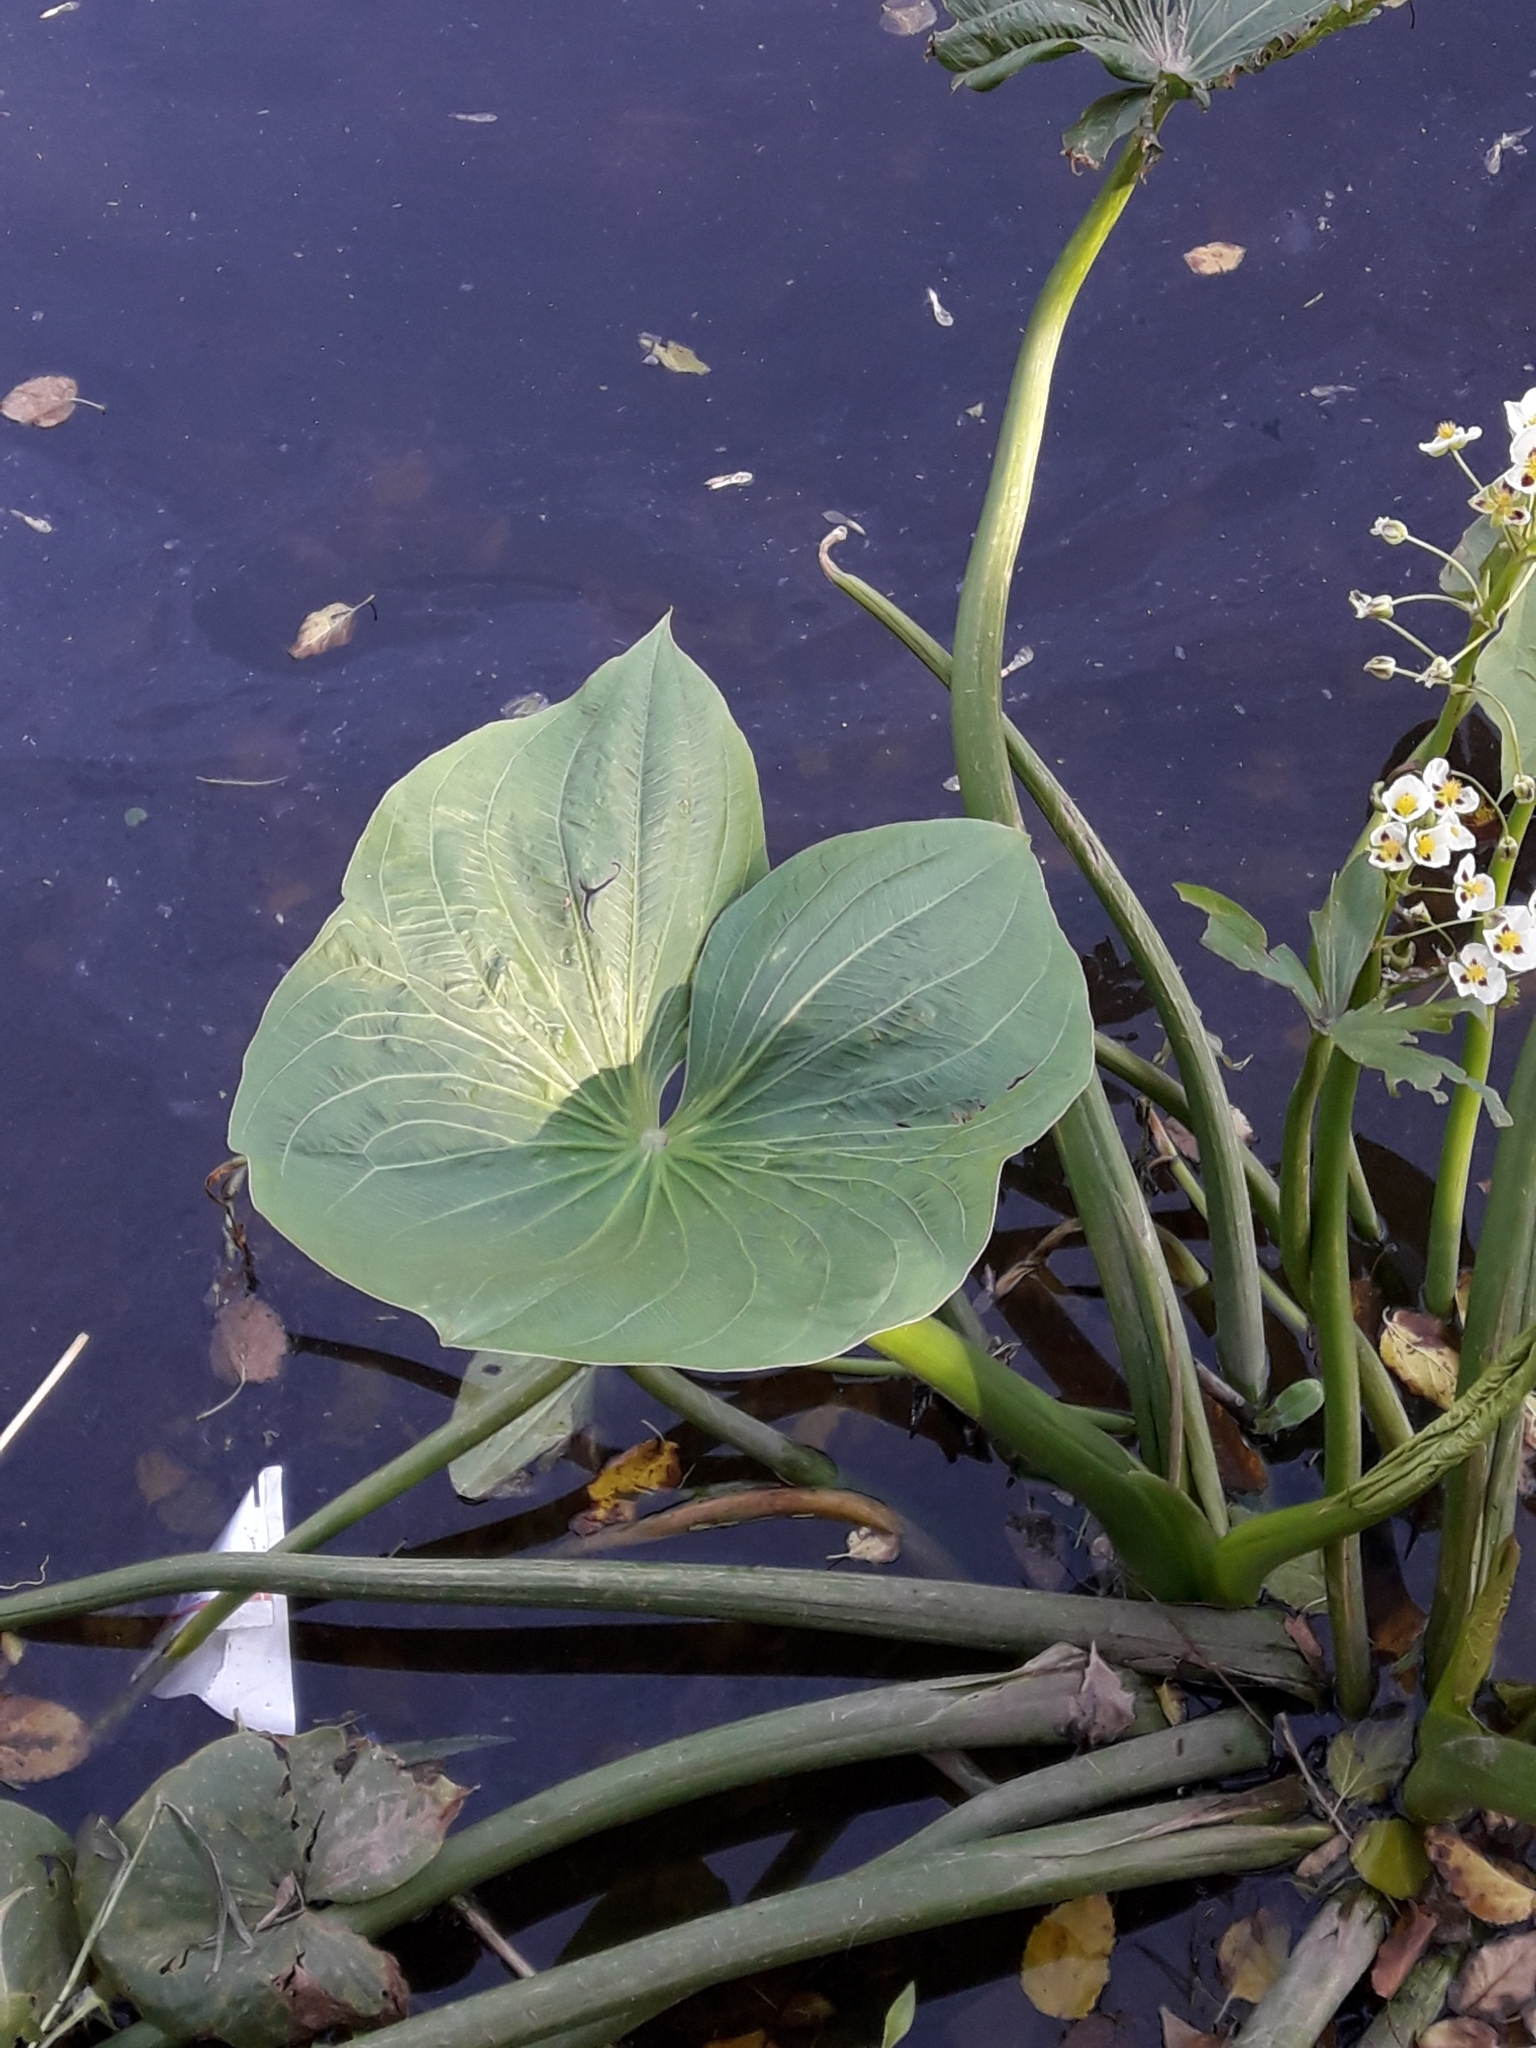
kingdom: Plantae
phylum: Tracheophyta
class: Liliopsida
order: Alismatales
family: Alismataceae
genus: Sagittaria
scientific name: Sagittaria montevidensis
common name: Giant arrowhead
